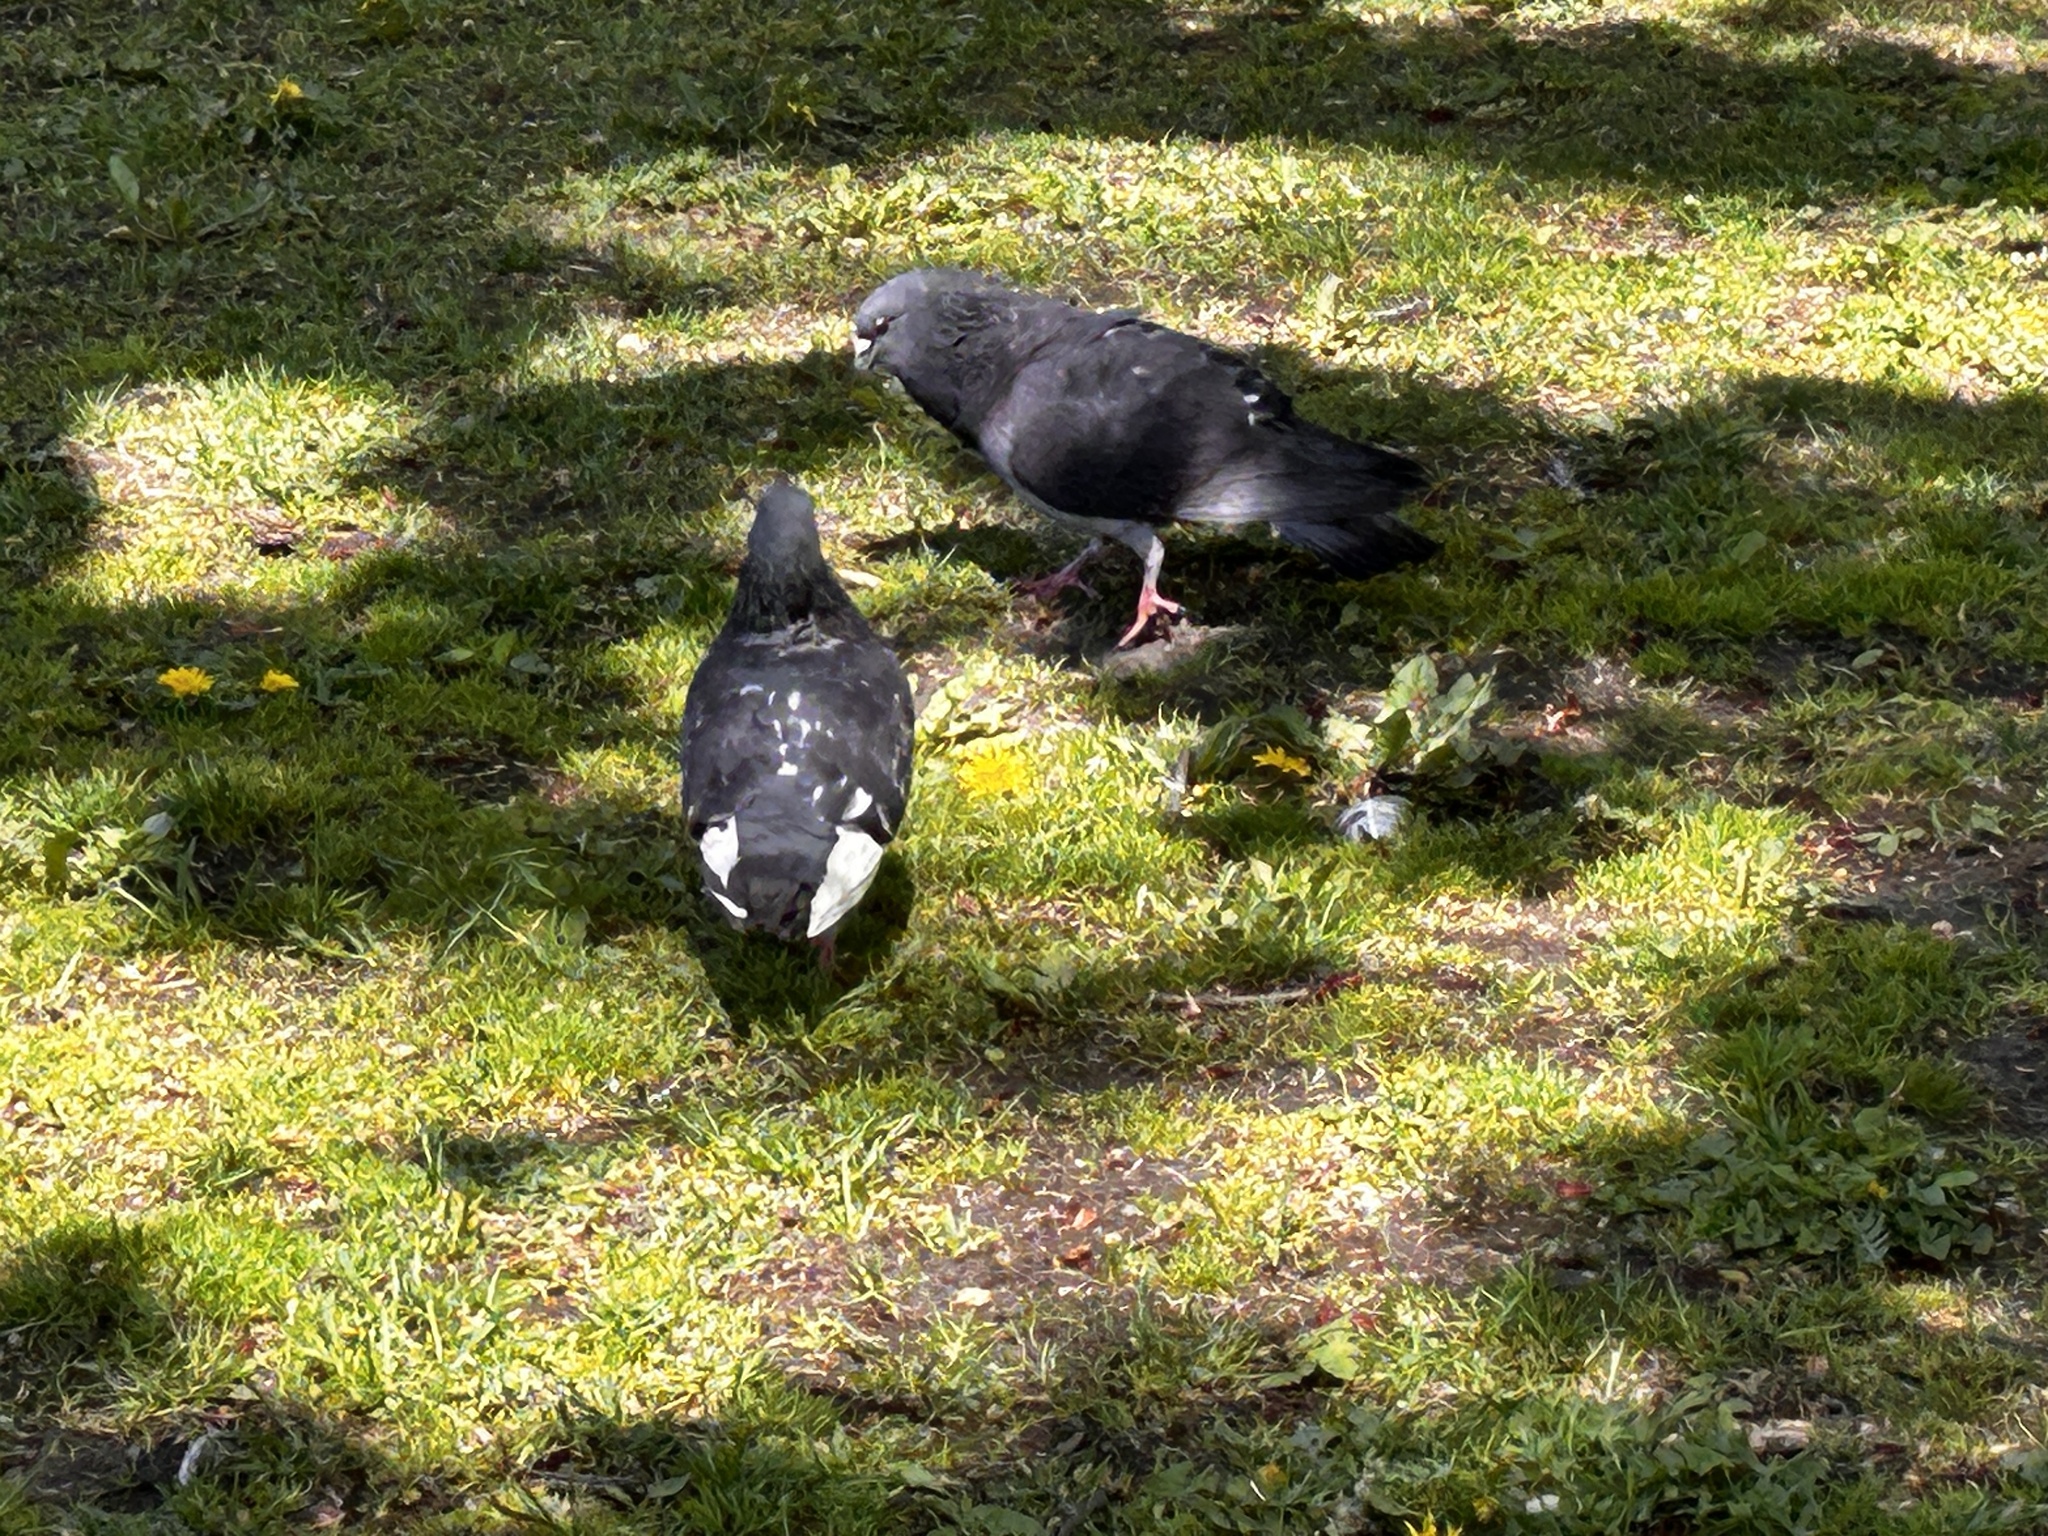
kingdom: Animalia
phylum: Chordata
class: Aves
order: Columbiformes
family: Columbidae
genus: Columba
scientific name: Columba livia
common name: Rock pigeon
